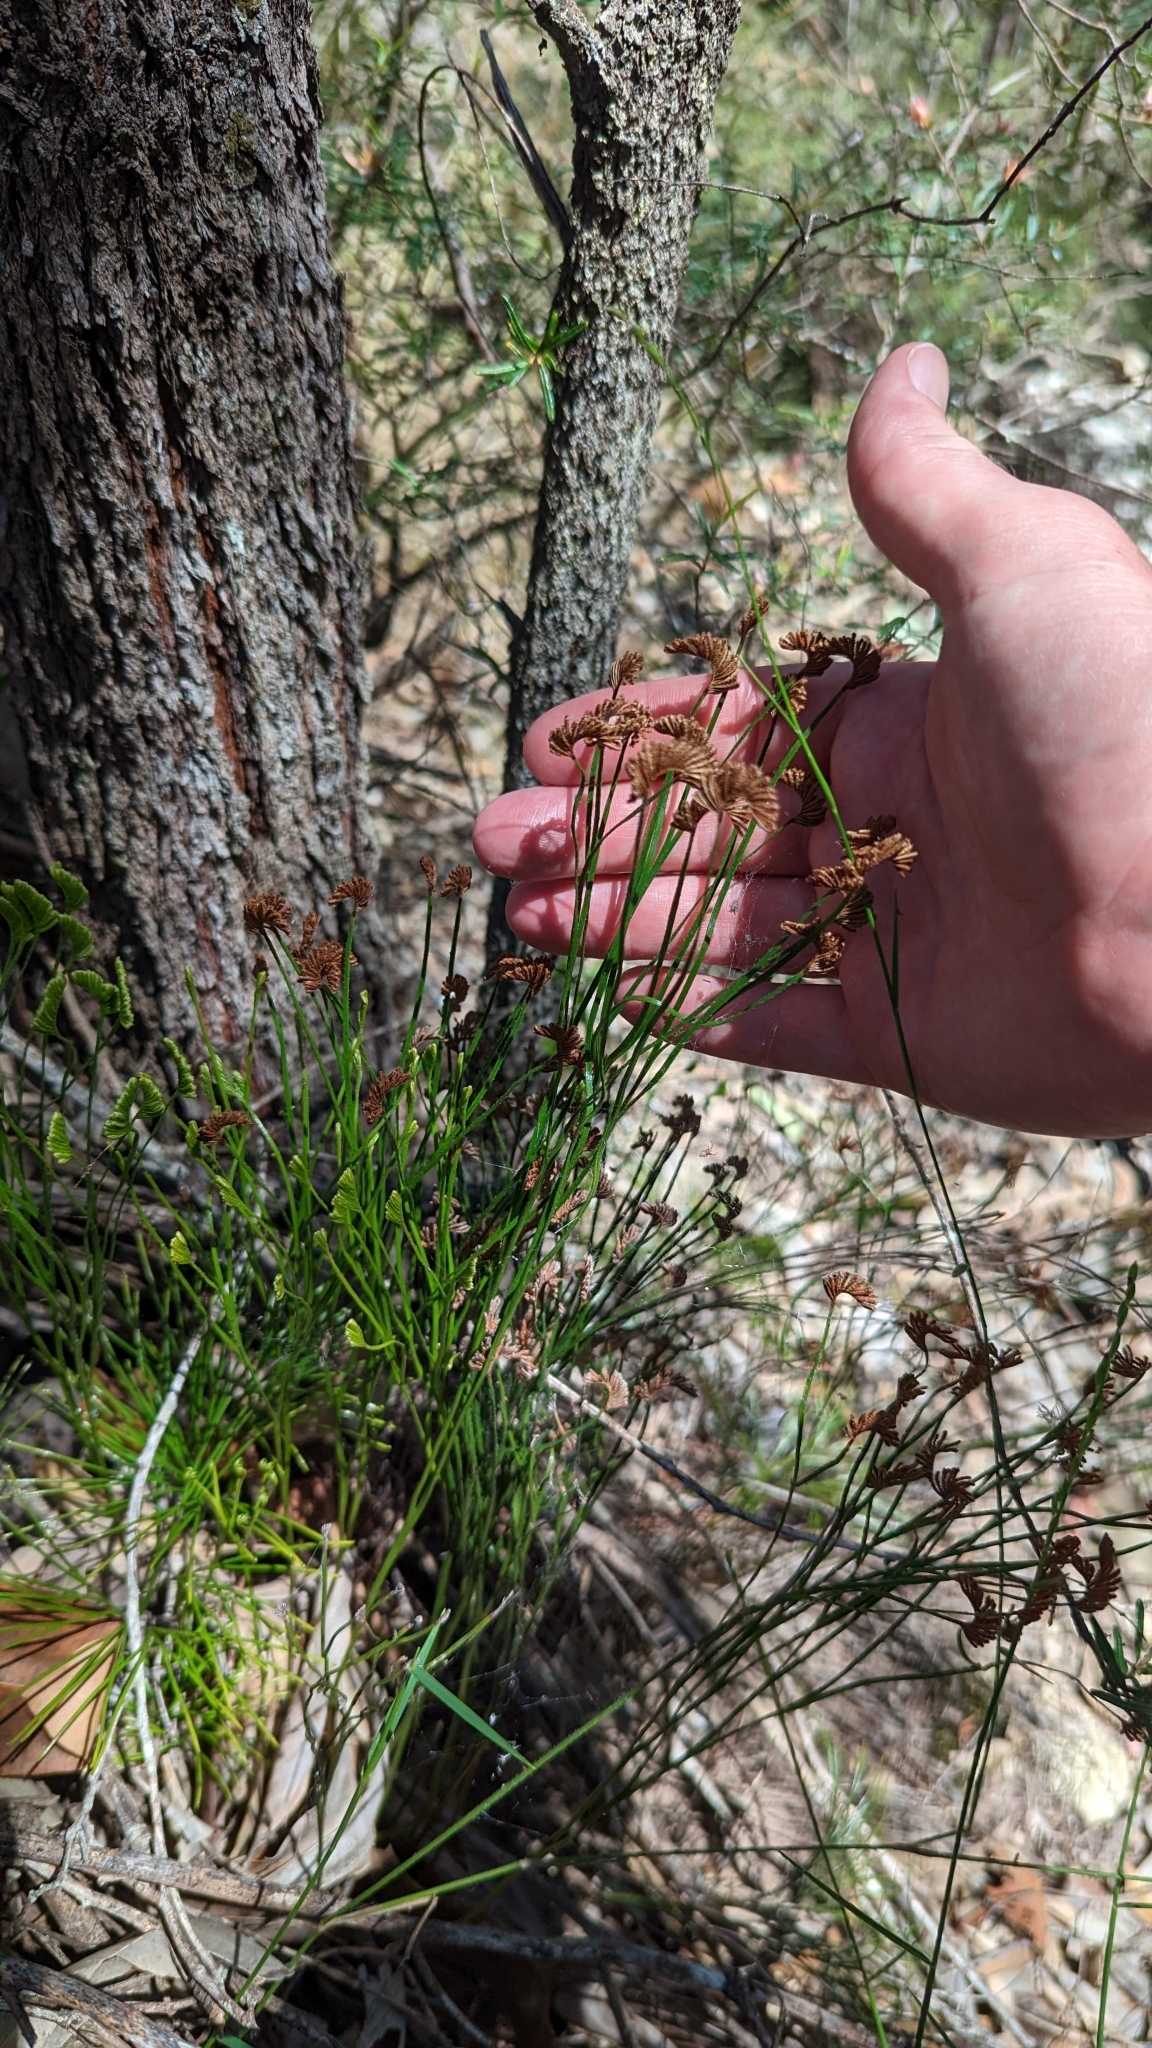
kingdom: Plantae
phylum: Tracheophyta
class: Polypodiopsida
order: Schizaeales
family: Schizaeaceae
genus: Schizaea
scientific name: Schizaea bifida
